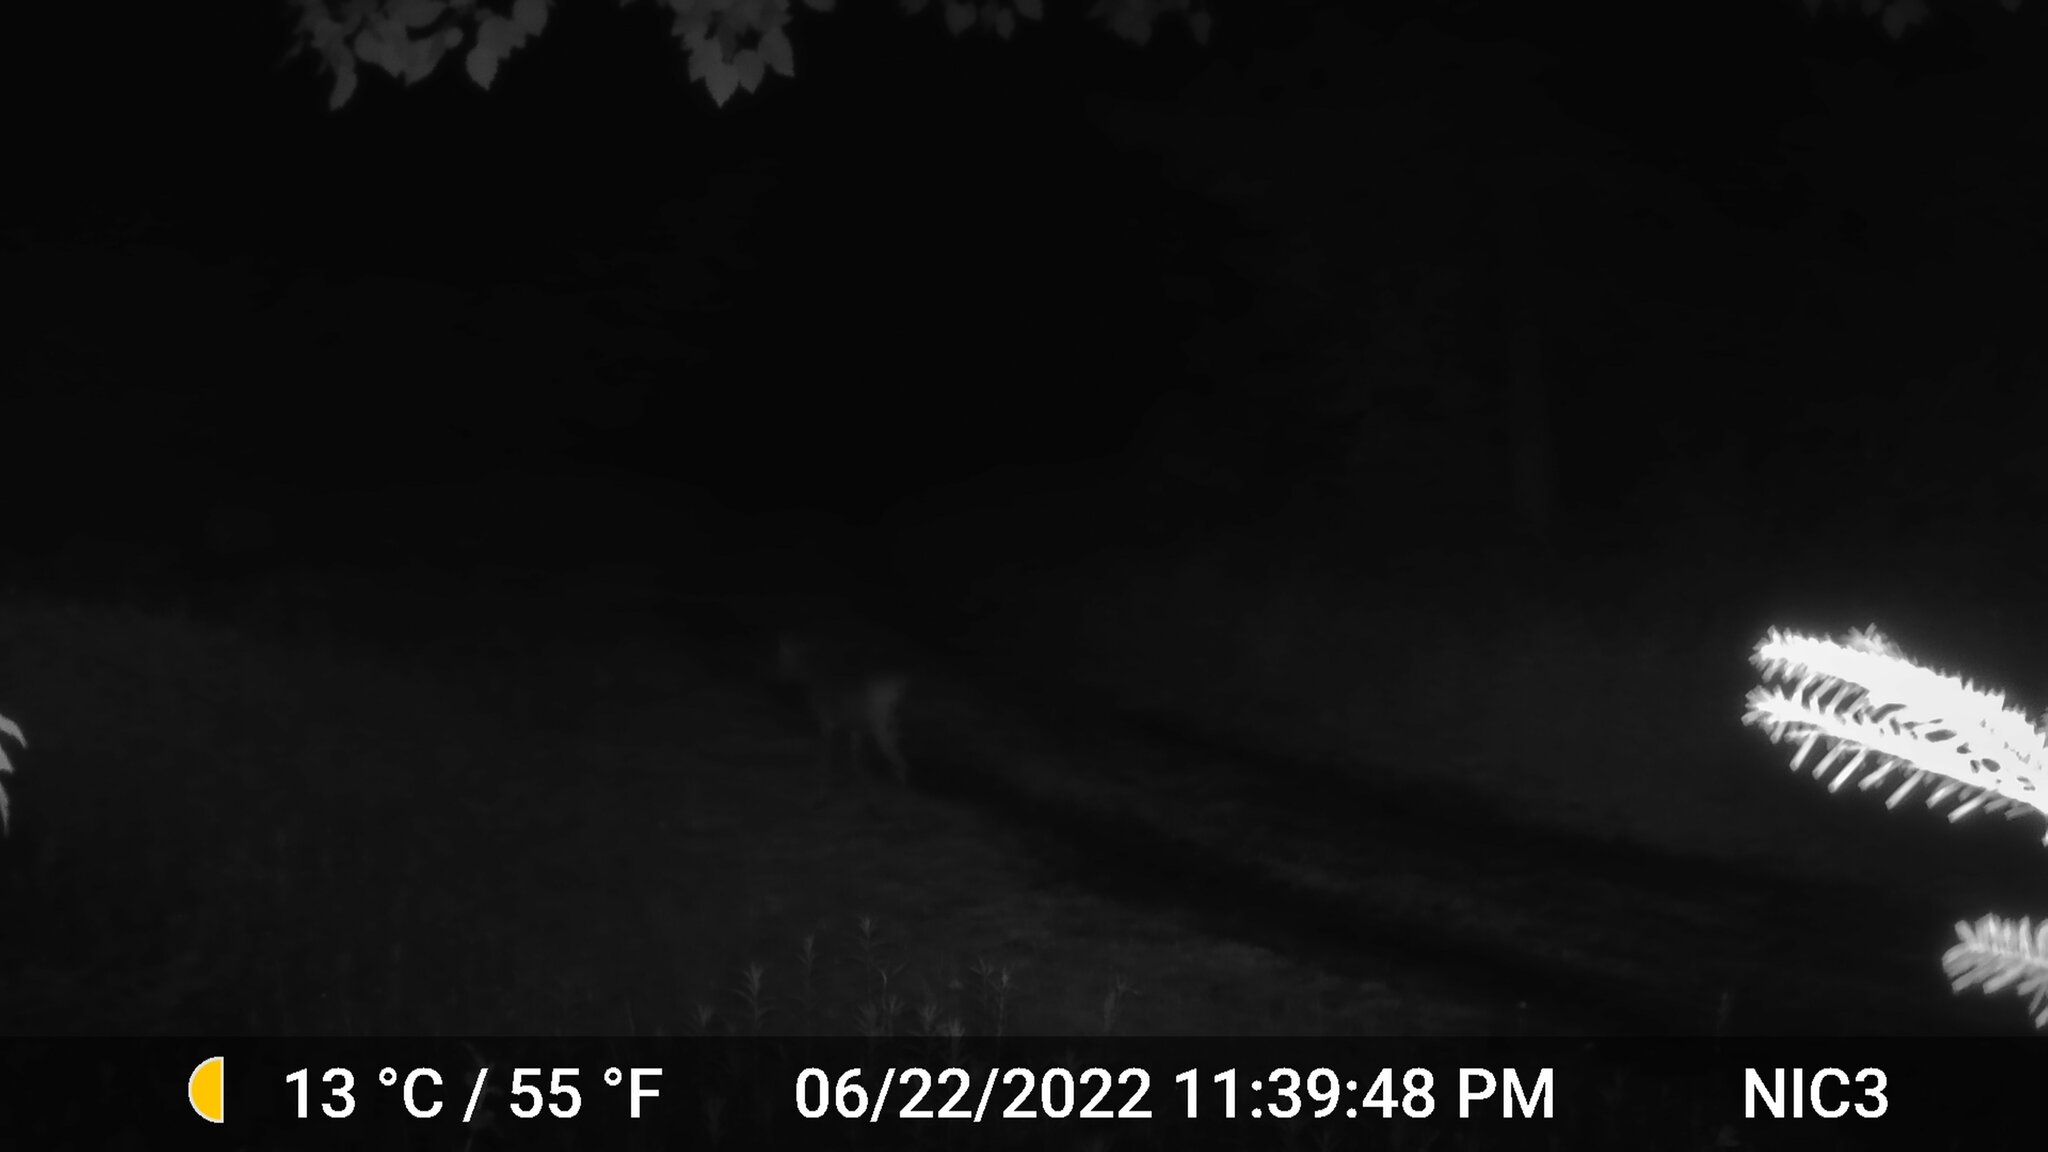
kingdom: Animalia
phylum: Chordata
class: Mammalia
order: Artiodactyla
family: Cervidae
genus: Odocoileus
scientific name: Odocoileus virginianus
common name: White-tailed deer
